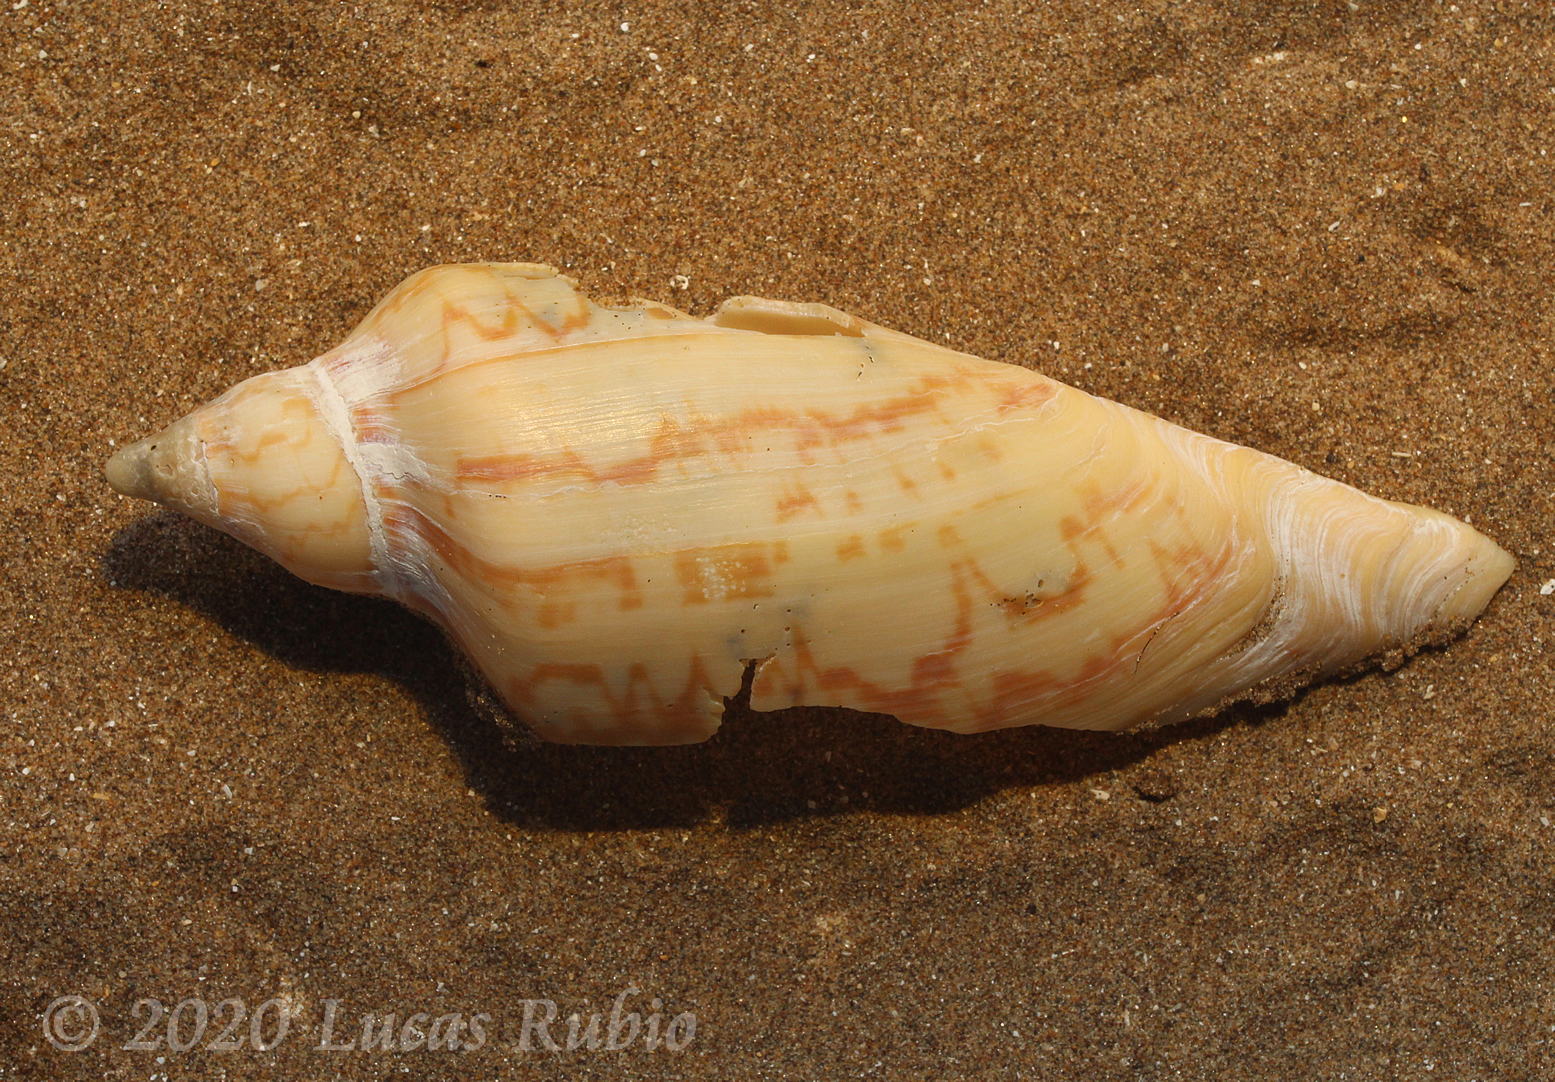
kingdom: Animalia
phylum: Mollusca
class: Gastropoda
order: Neogastropoda
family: Volutidae
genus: Zidona
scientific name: Zidona dufresnii
